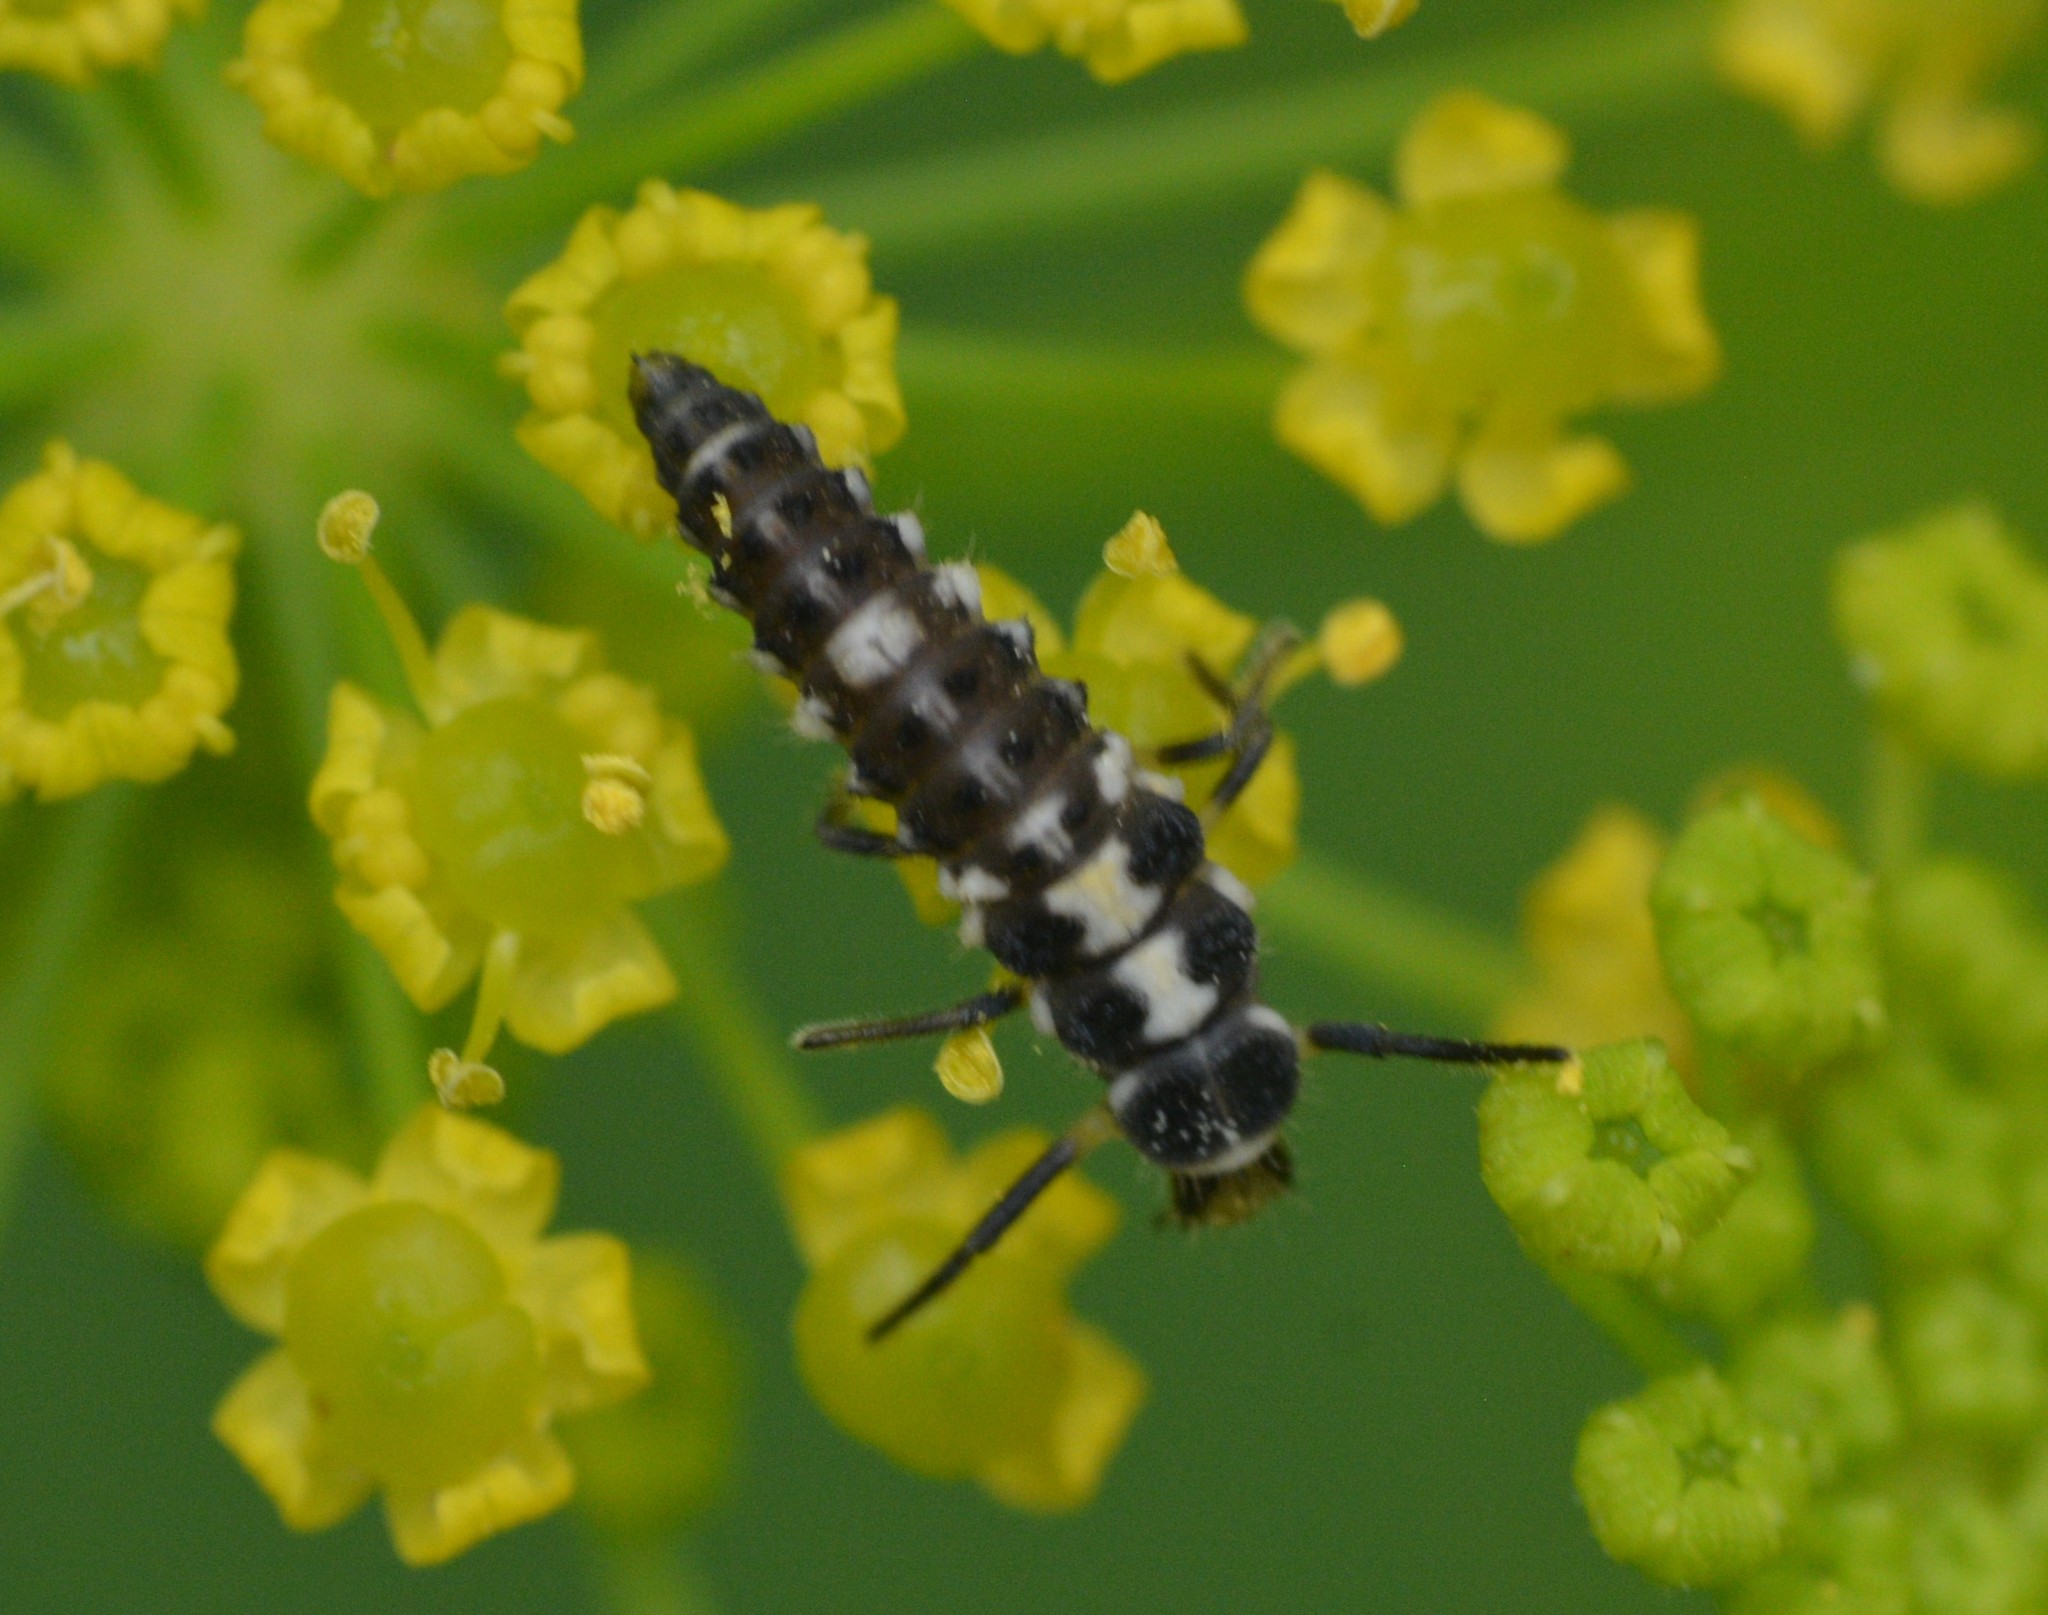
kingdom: Animalia
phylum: Arthropoda
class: Insecta
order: Coleoptera
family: Coccinellidae
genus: Propylaea
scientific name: Propylaea quatuordecimpunctata
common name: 14-spotted ladybird beetle
